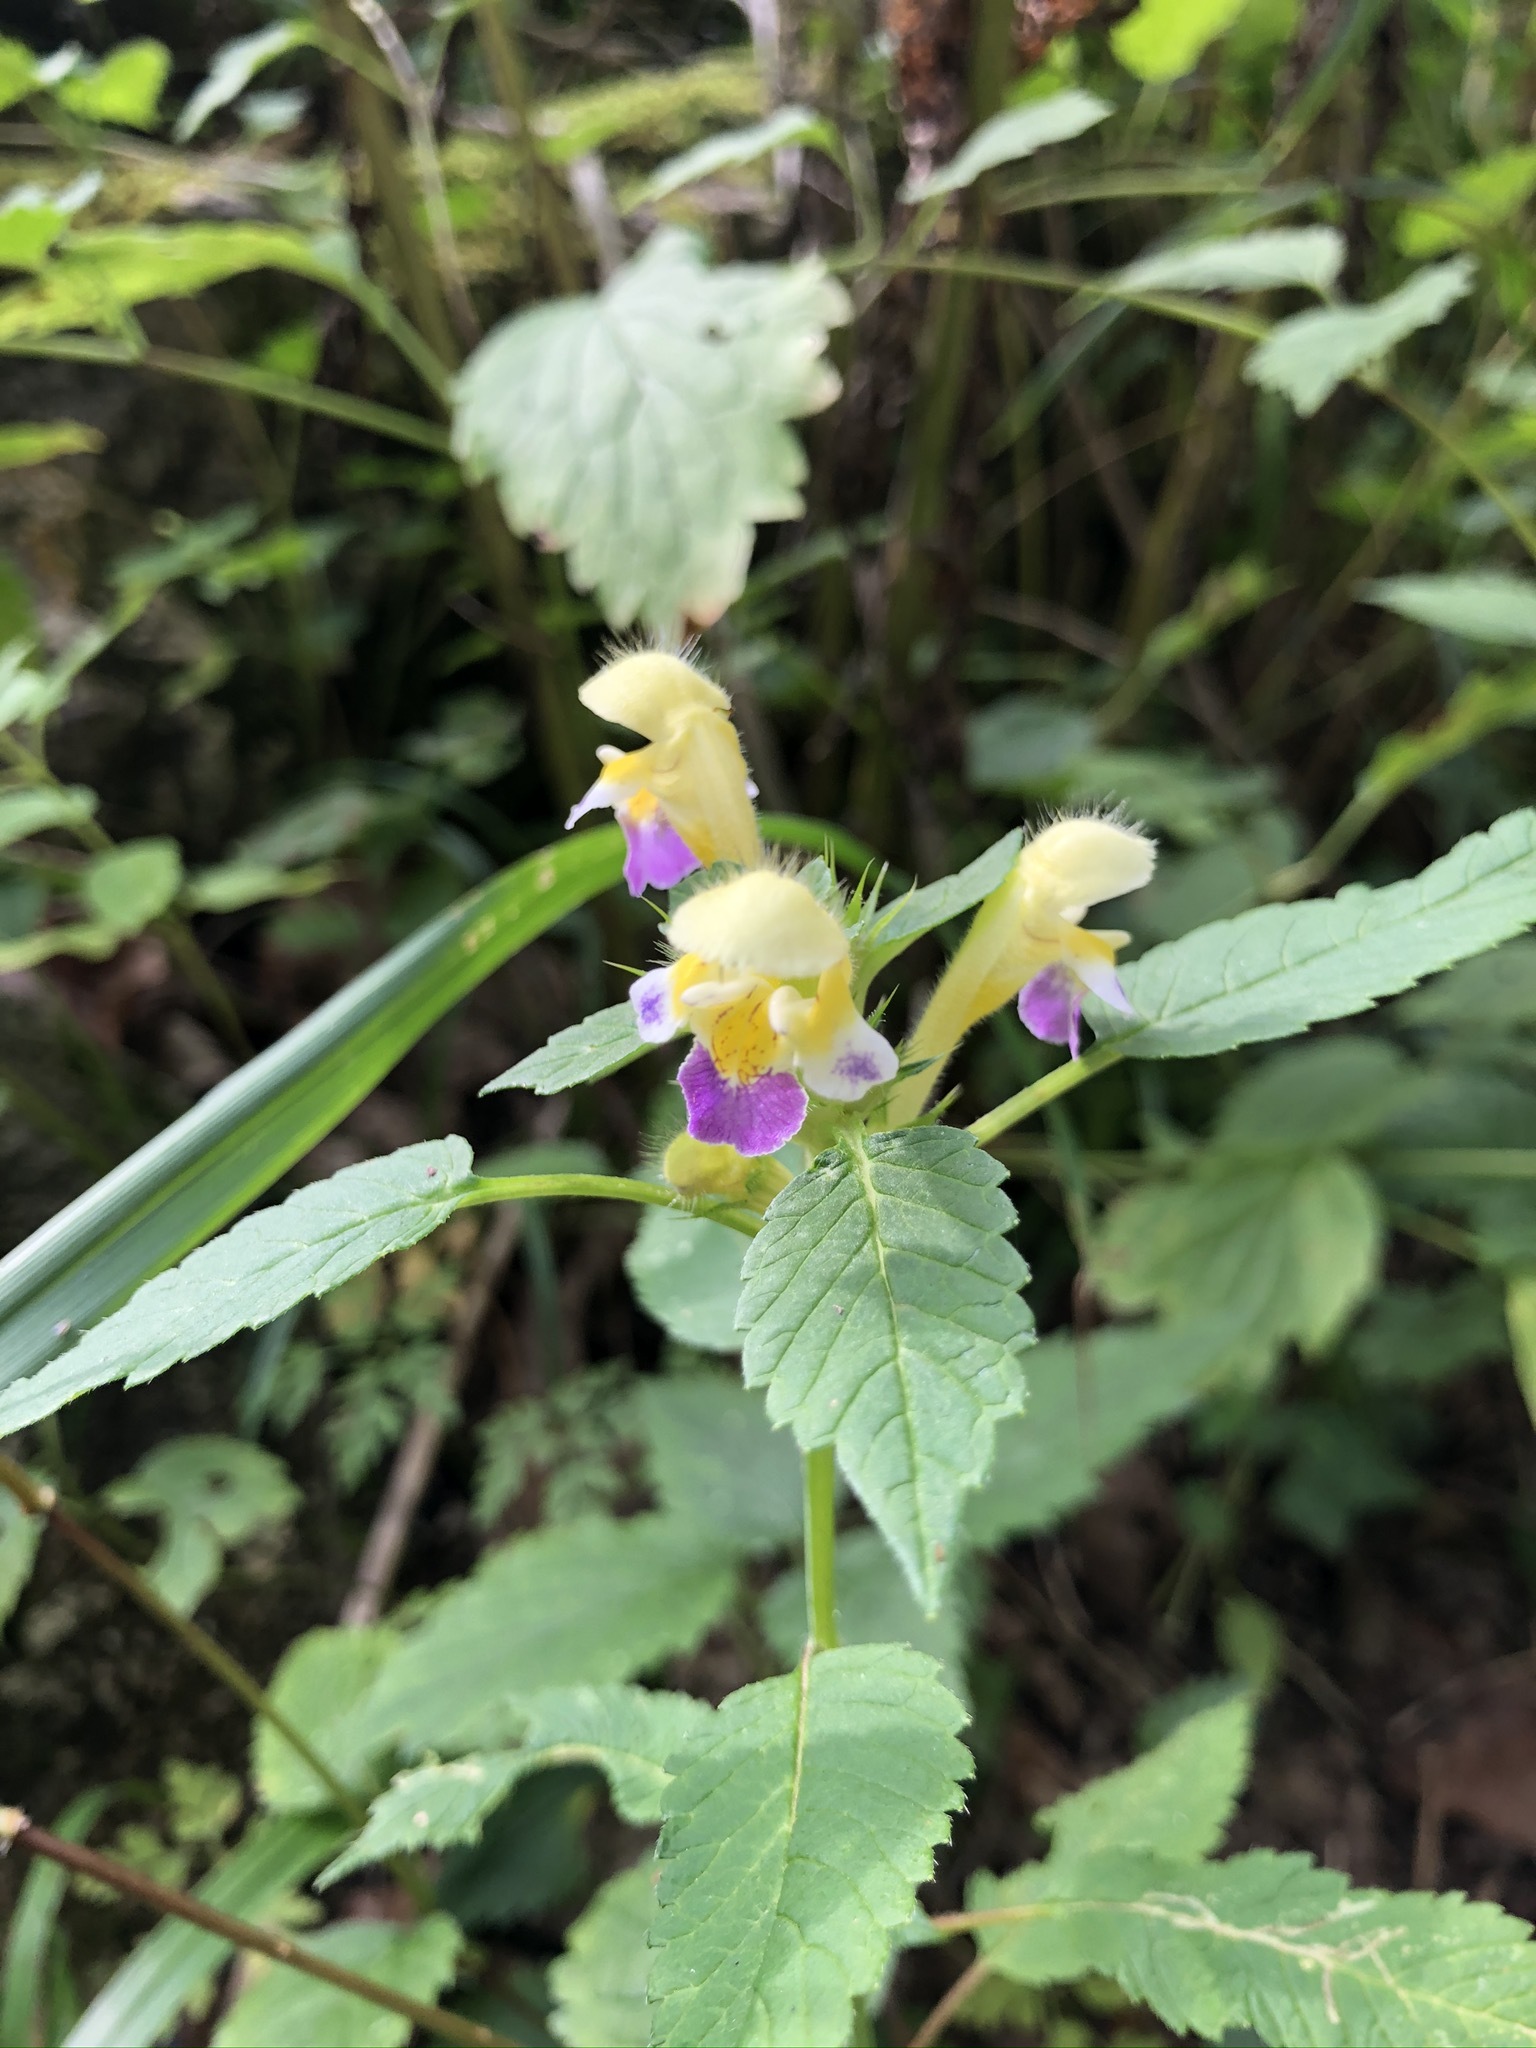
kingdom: Plantae
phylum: Tracheophyta
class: Magnoliopsida
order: Lamiales
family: Lamiaceae
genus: Galeopsis
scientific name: Galeopsis speciosa
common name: Large-flowered hemp-nettle
